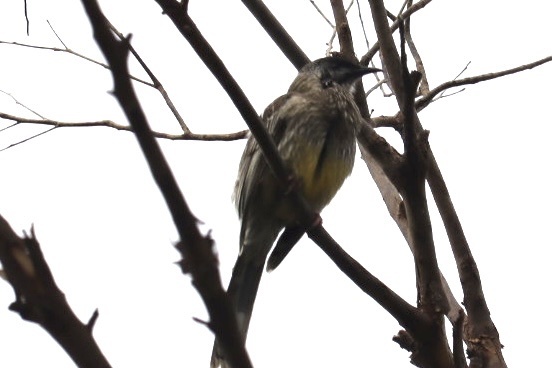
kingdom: Animalia
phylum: Chordata
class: Aves
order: Passeriformes
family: Meliphagidae
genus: Anthochaera
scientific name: Anthochaera carunculata
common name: Red wattlebird
